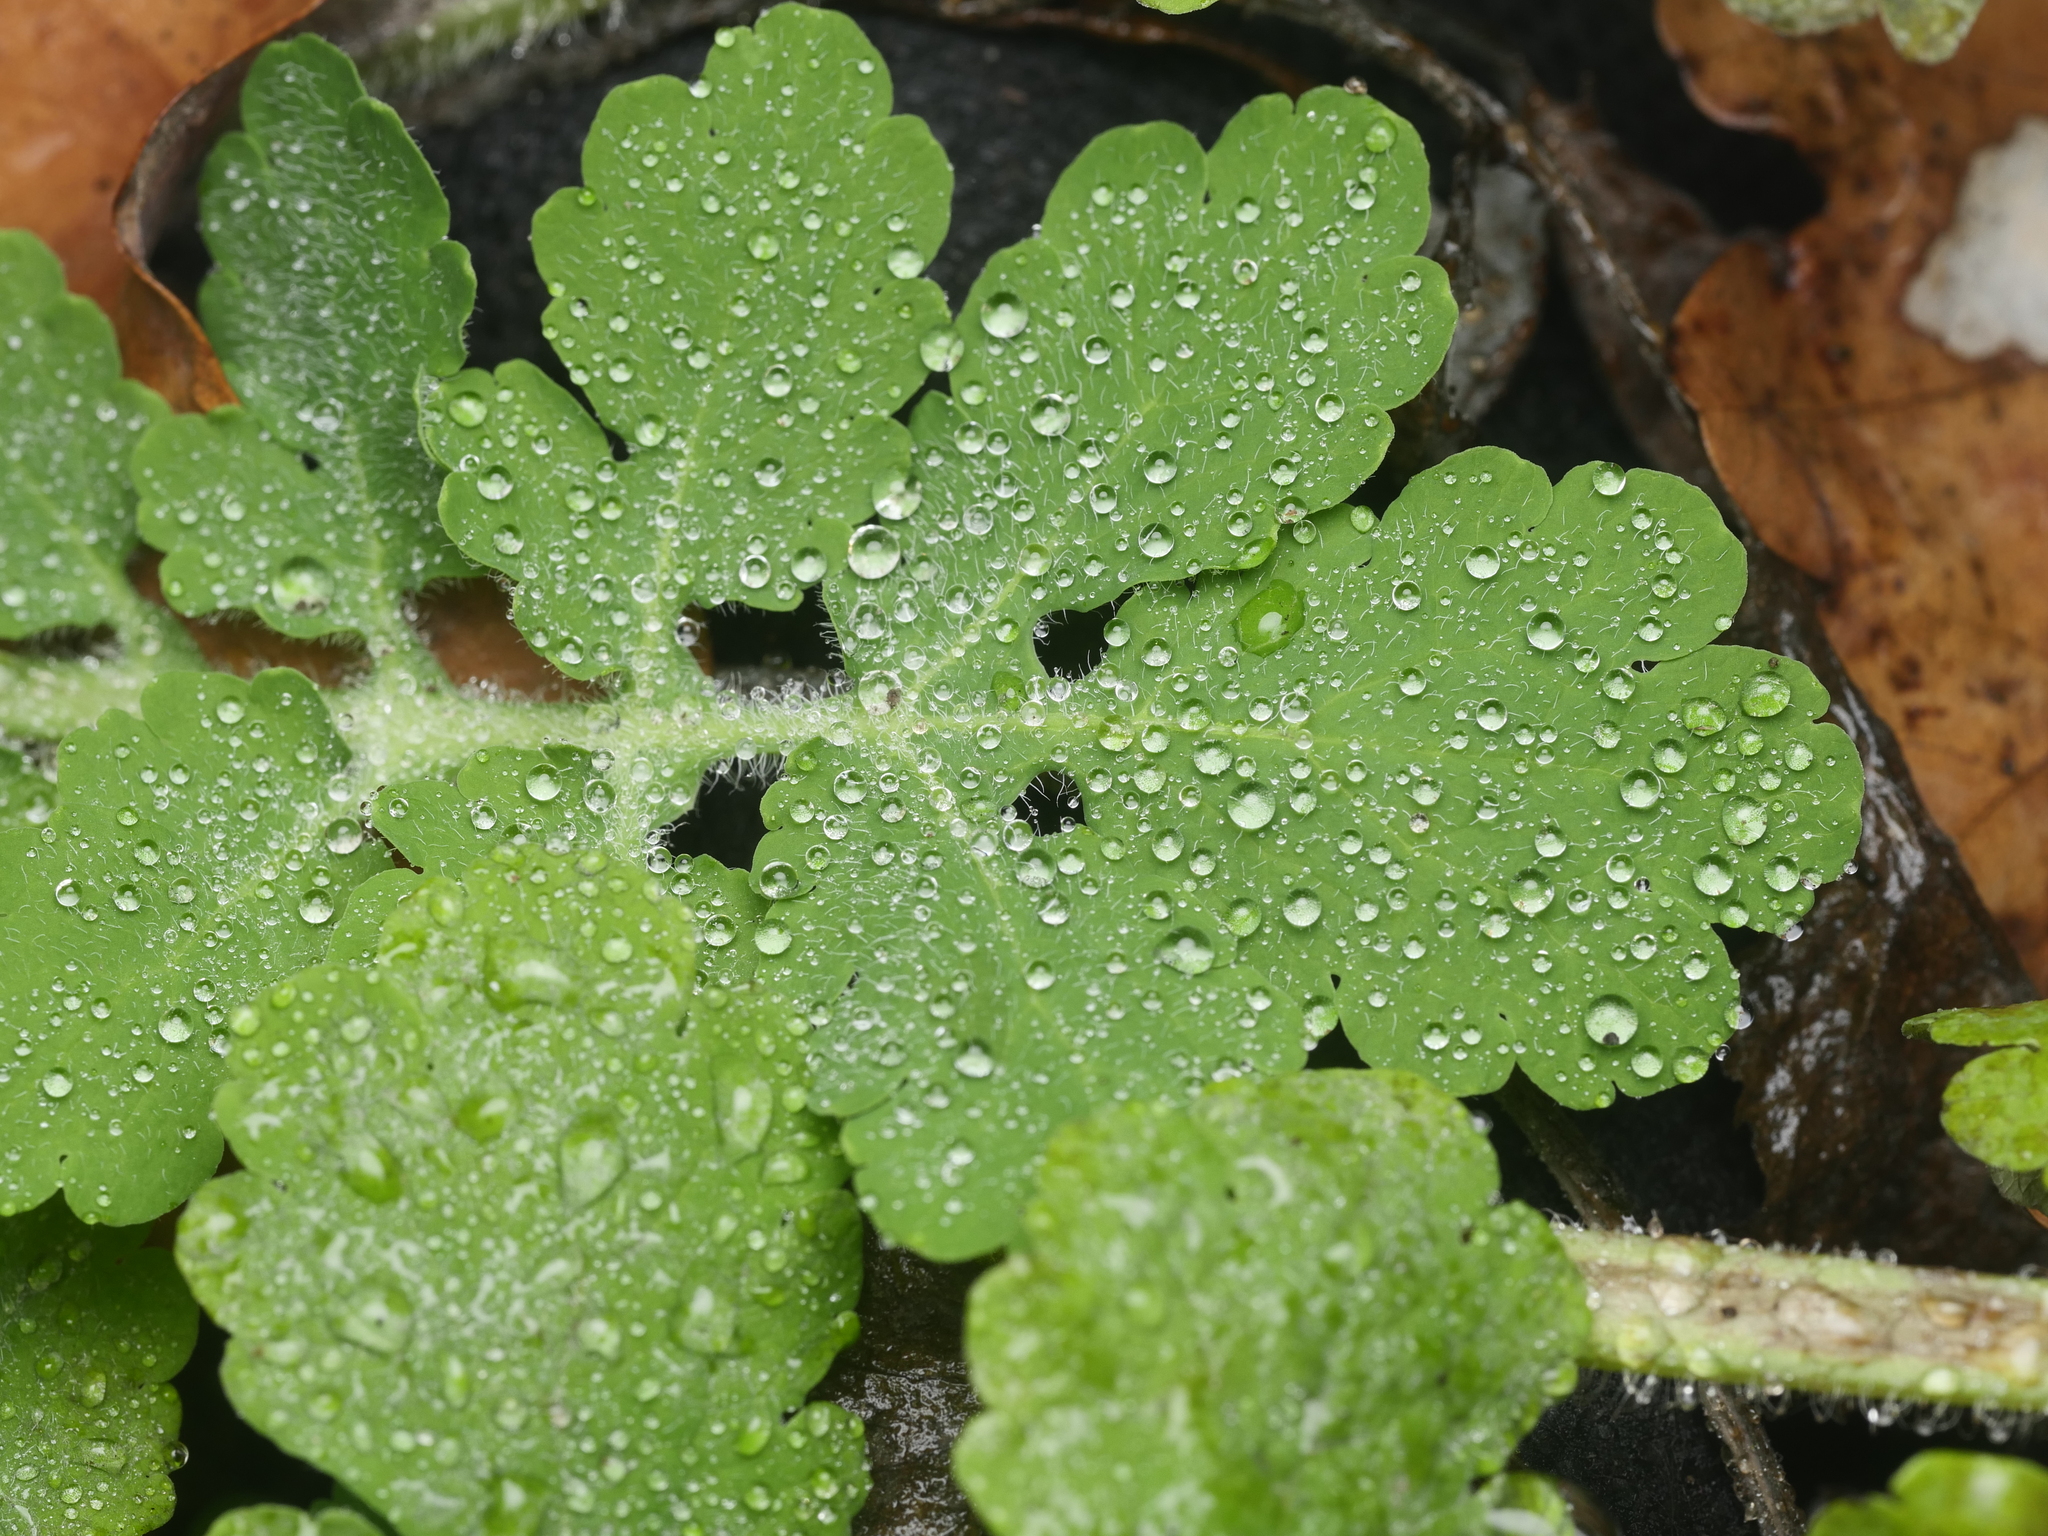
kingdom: Plantae
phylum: Tracheophyta
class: Magnoliopsida
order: Ranunculales
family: Papaveraceae
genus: Chelidonium
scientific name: Chelidonium majus
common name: Greater celandine
